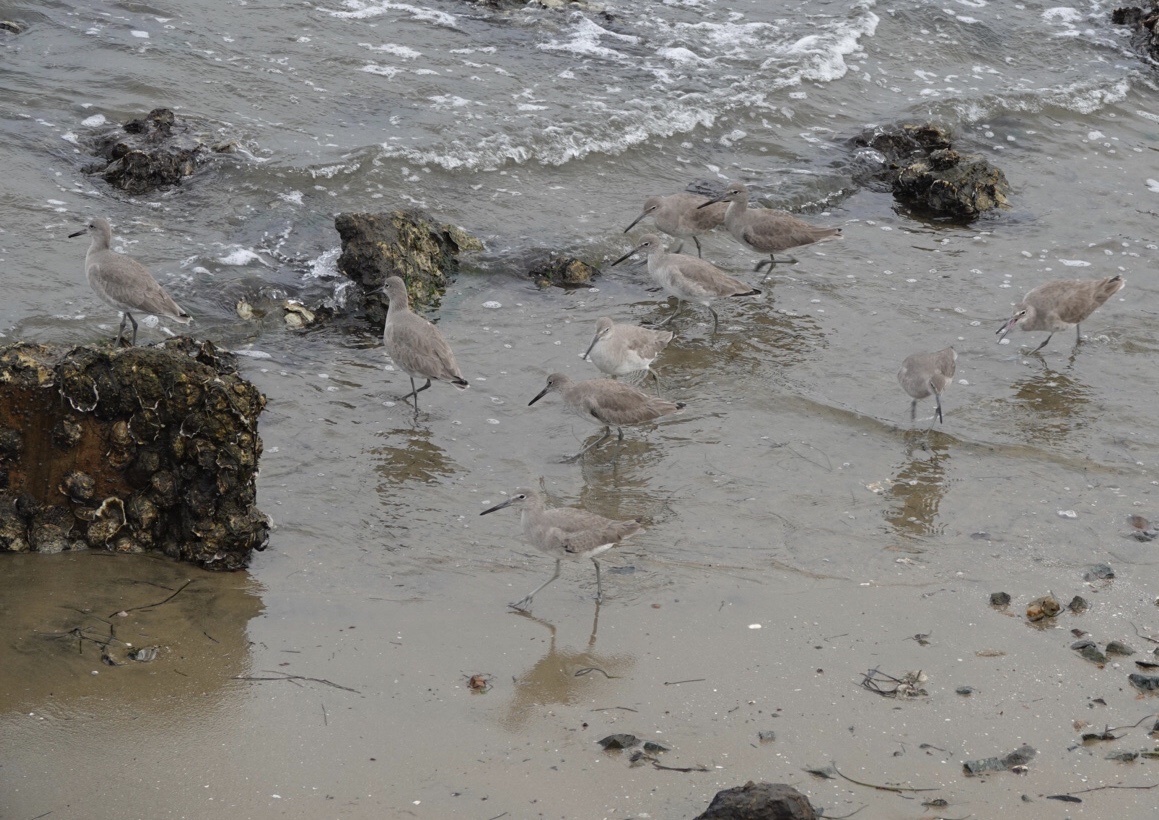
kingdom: Animalia
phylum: Chordata
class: Aves
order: Charadriiformes
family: Scolopacidae
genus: Tringa
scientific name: Tringa semipalmata
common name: Willet
